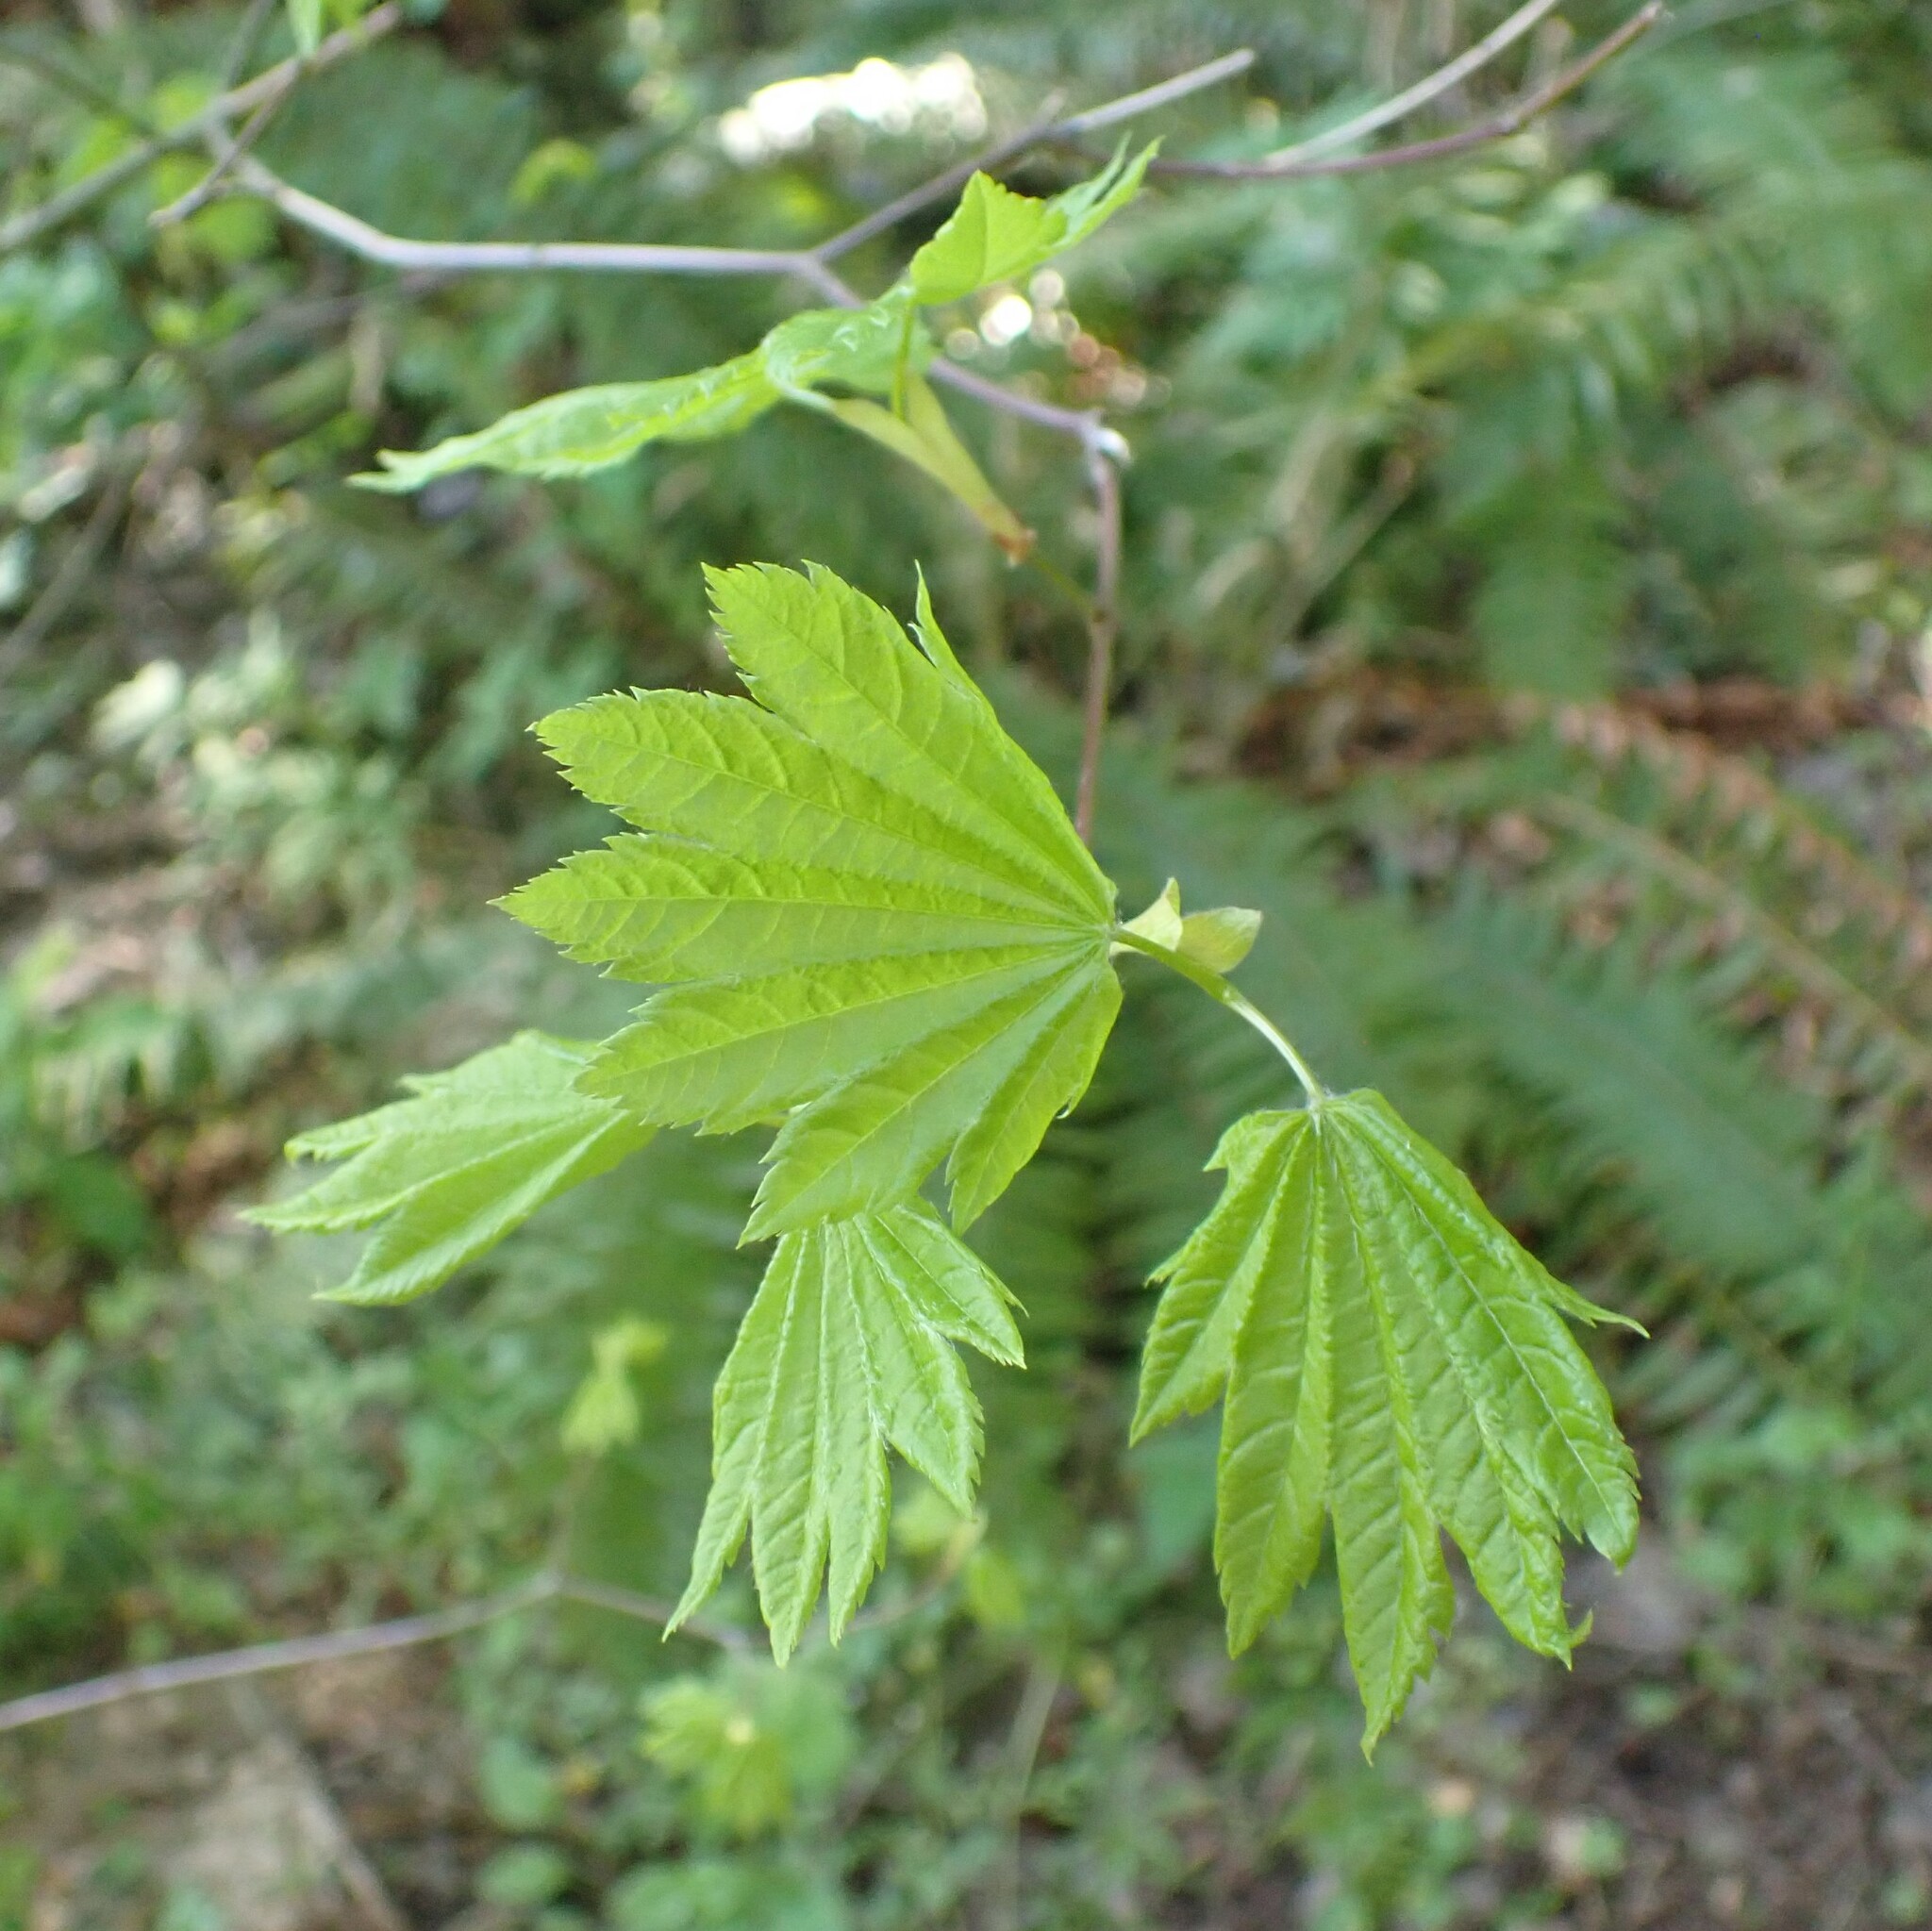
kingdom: Plantae
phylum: Tracheophyta
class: Magnoliopsida
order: Sapindales
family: Sapindaceae
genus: Acer
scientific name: Acer circinatum
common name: Vine maple
